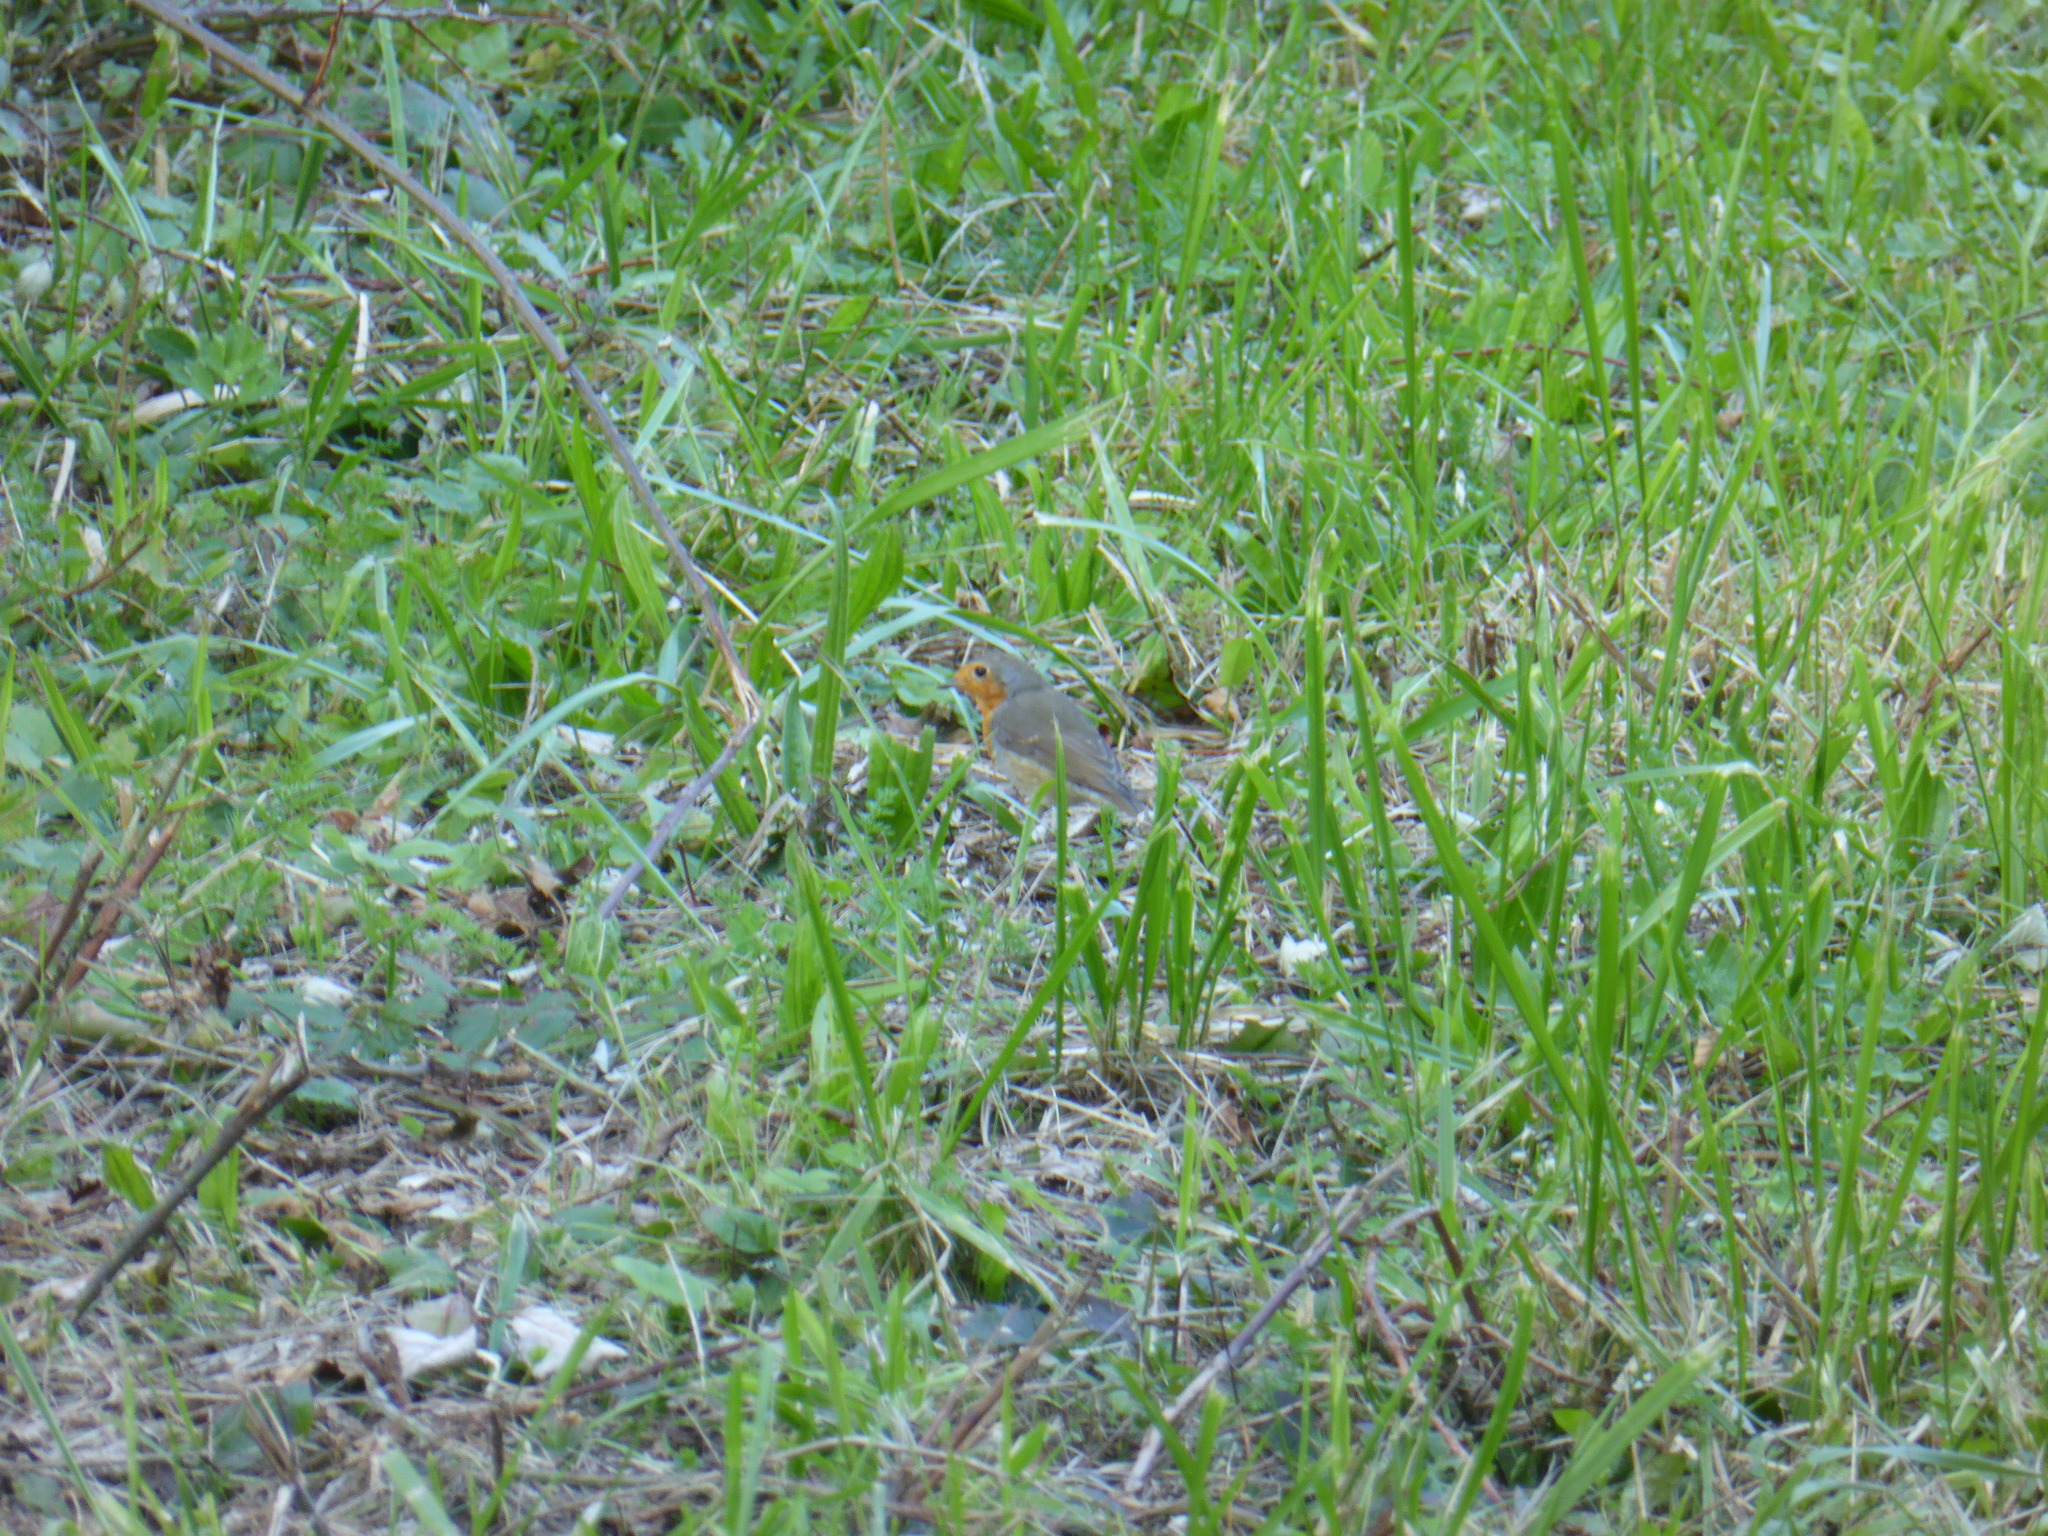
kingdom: Animalia
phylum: Chordata
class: Aves
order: Passeriformes
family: Muscicapidae
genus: Erithacus
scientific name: Erithacus rubecula
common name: European robin
